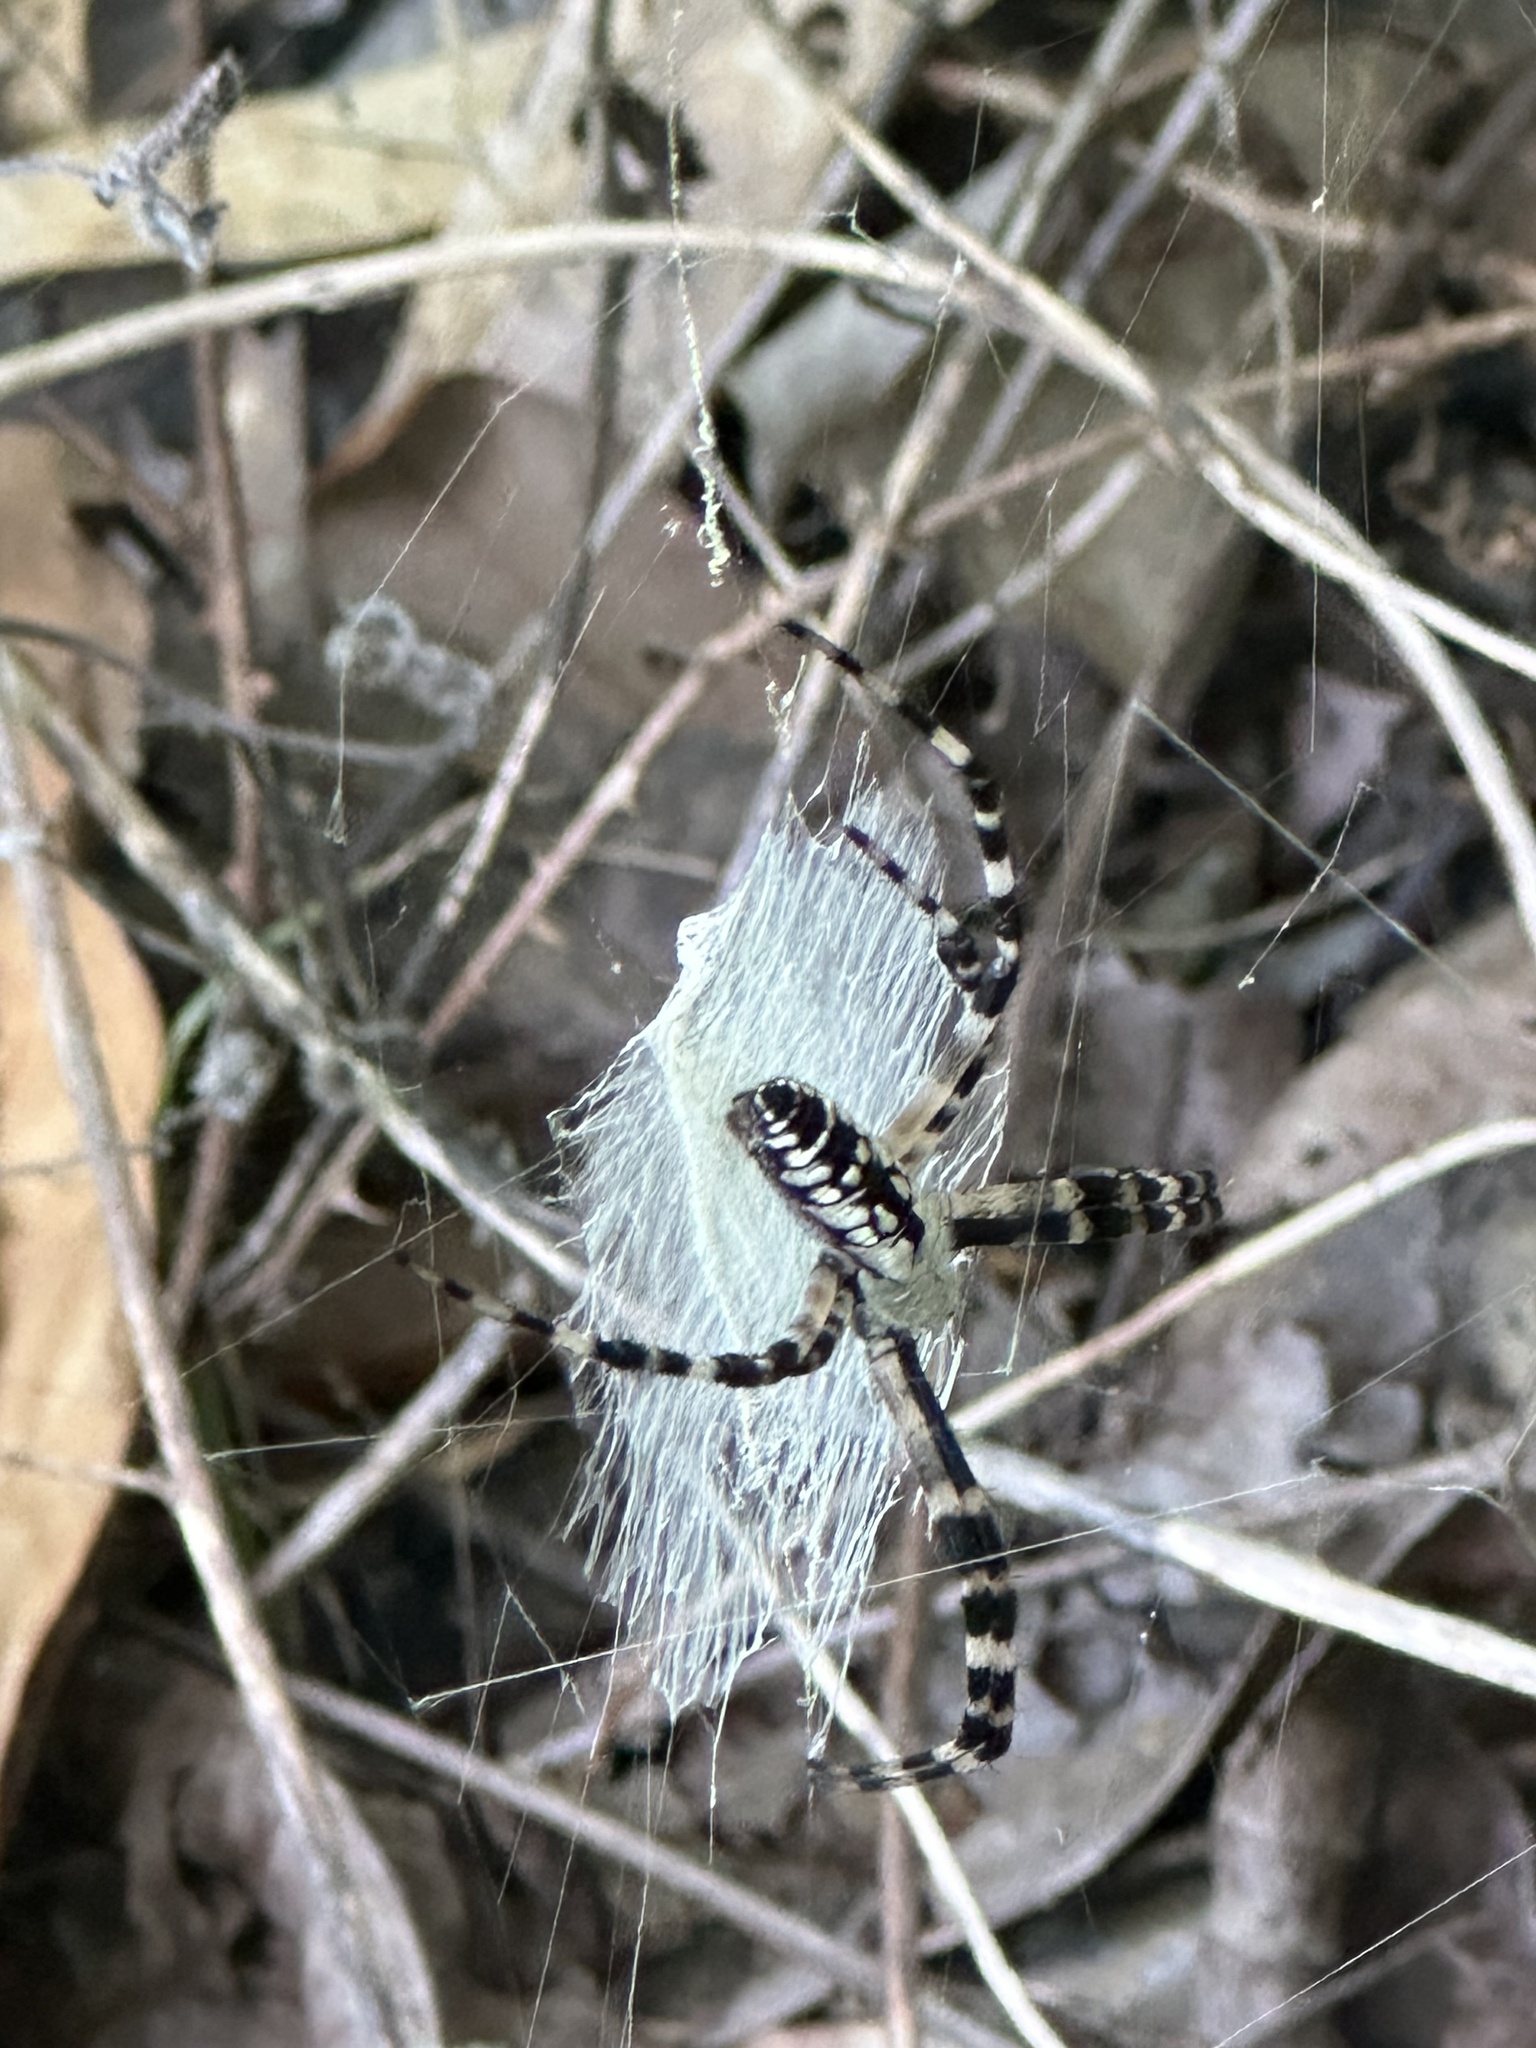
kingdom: Animalia
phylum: Arthropoda
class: Arachnida
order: Araneae
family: Araneidae
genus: Argiope
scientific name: Argiope aurantia
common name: Orb weavers
